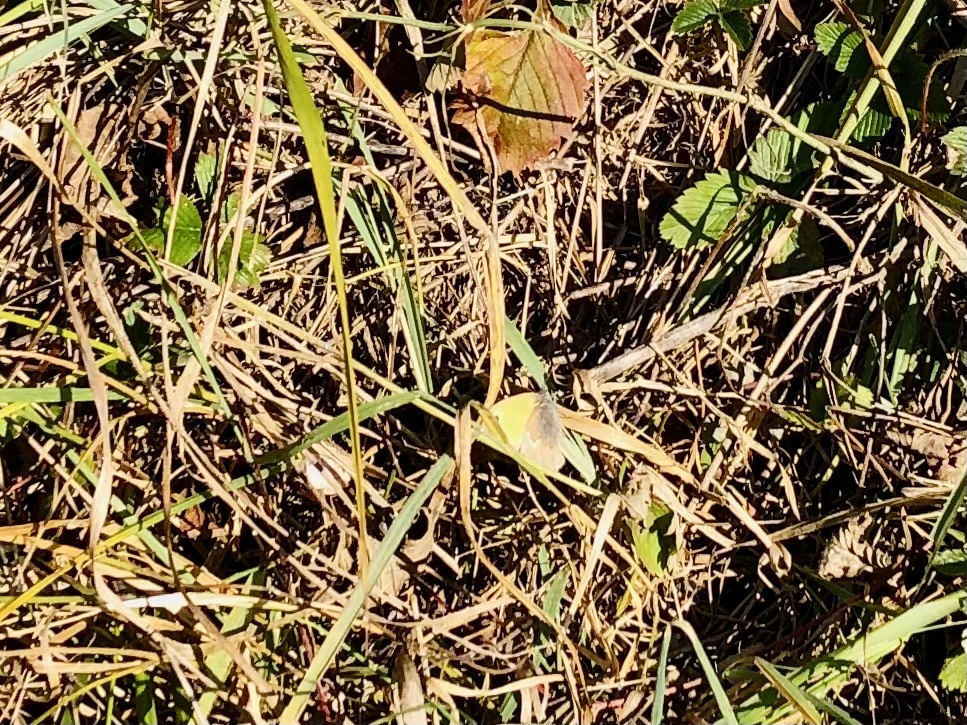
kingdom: Animalia
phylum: Arthropoda
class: Insecta
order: Lepidoptera
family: Nymphalidae
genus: Coenonympha
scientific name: Coenonympha pamphilus
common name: Small heath
